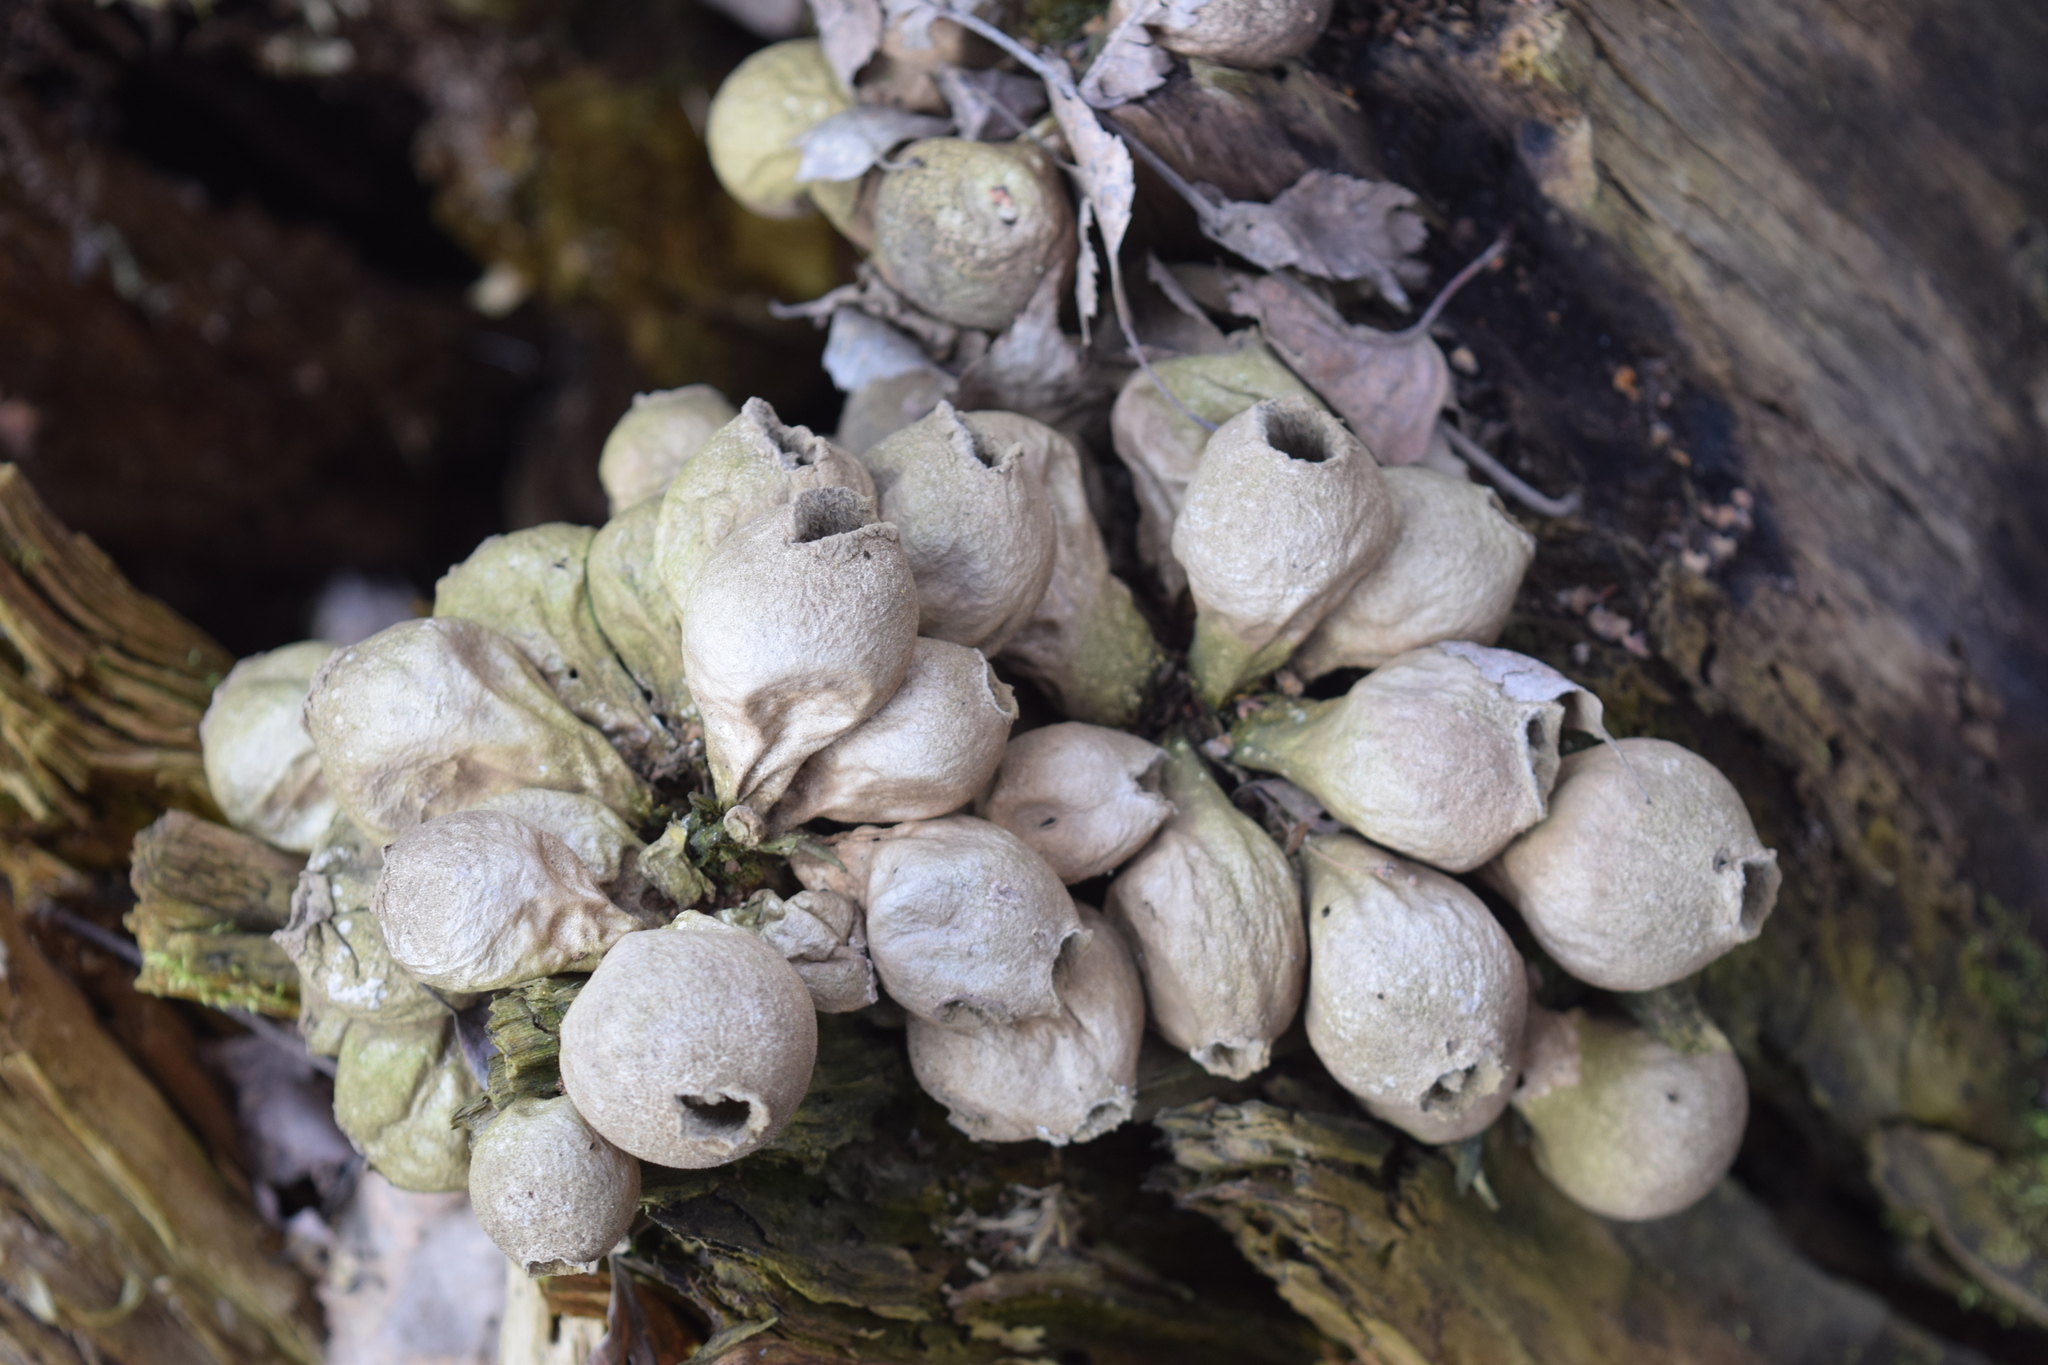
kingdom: Fungi
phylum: Basidiomycota
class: Agaricomycetes
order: Agaricales
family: Lycoperdaceae
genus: Apioperdon
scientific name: Apioperdon pyriforme
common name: Pear-shaped puffball
